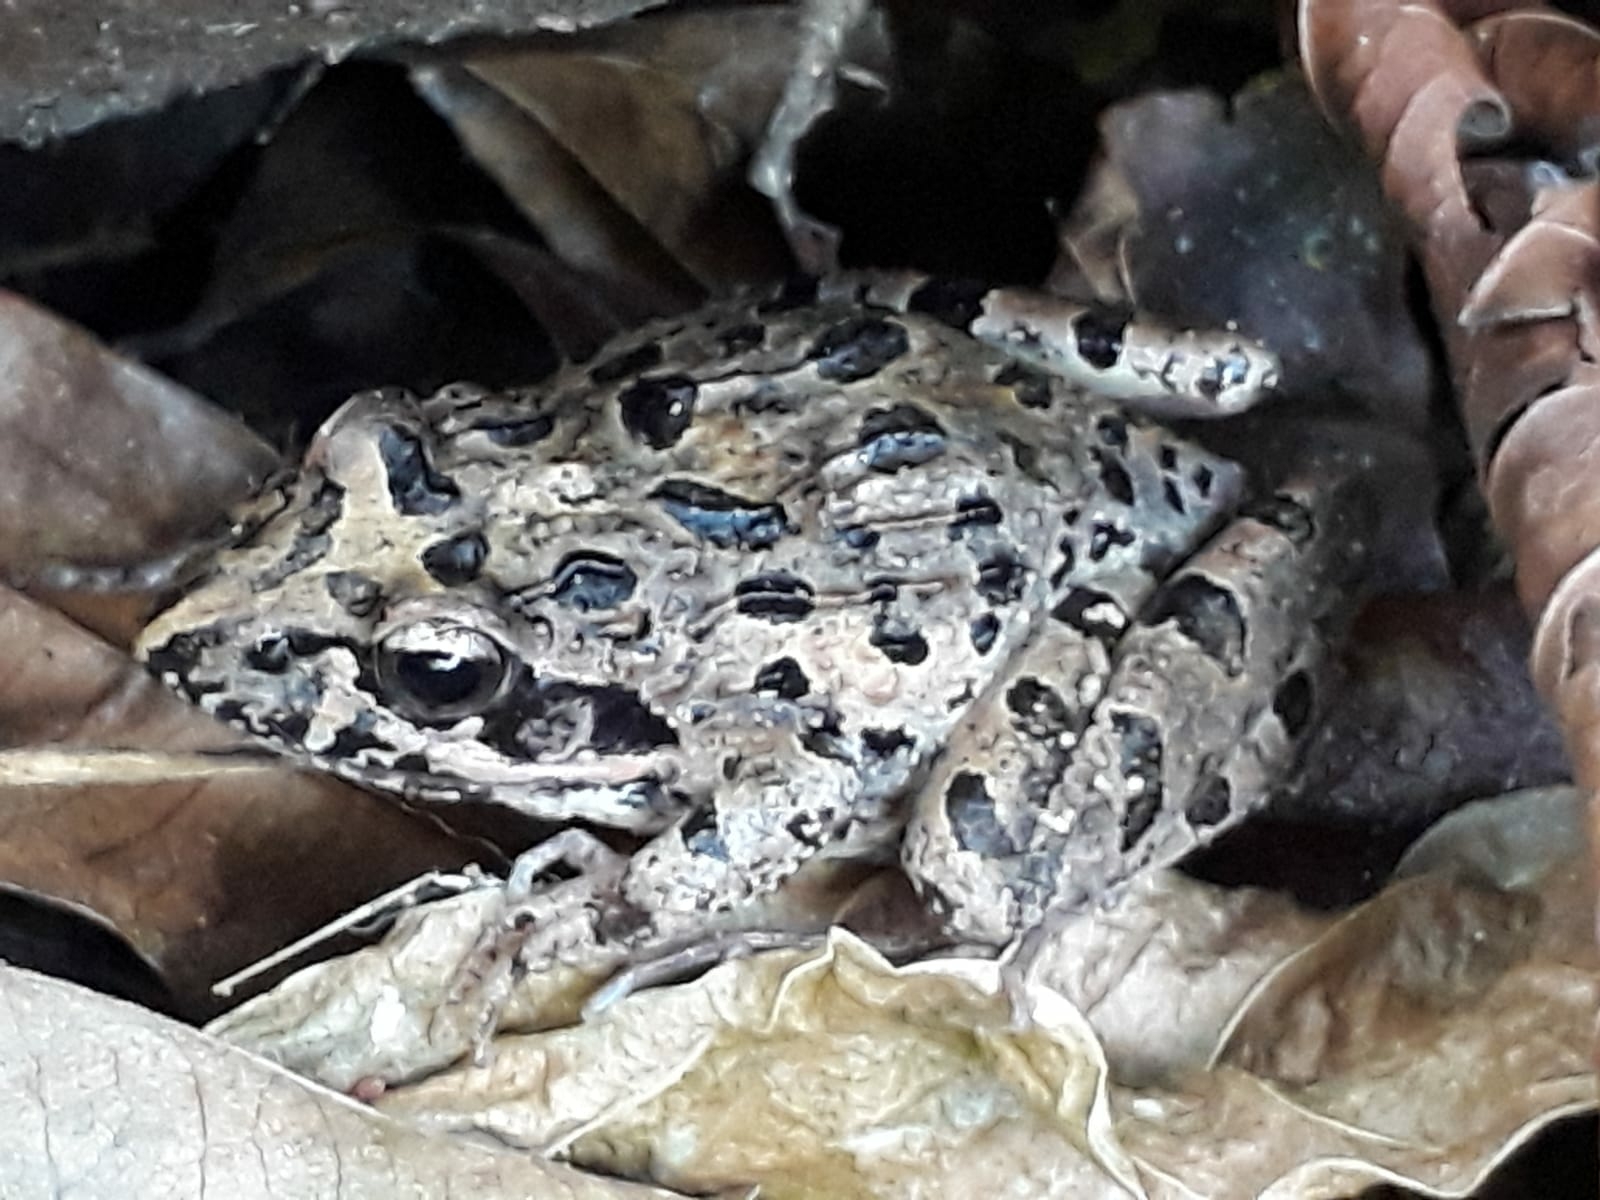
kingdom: Animalia
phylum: Chordata
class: Amphibia
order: Anura
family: Pyxicephalidae
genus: Strongylopus
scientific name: Strongylopus grayii
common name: Gray's stream frog
